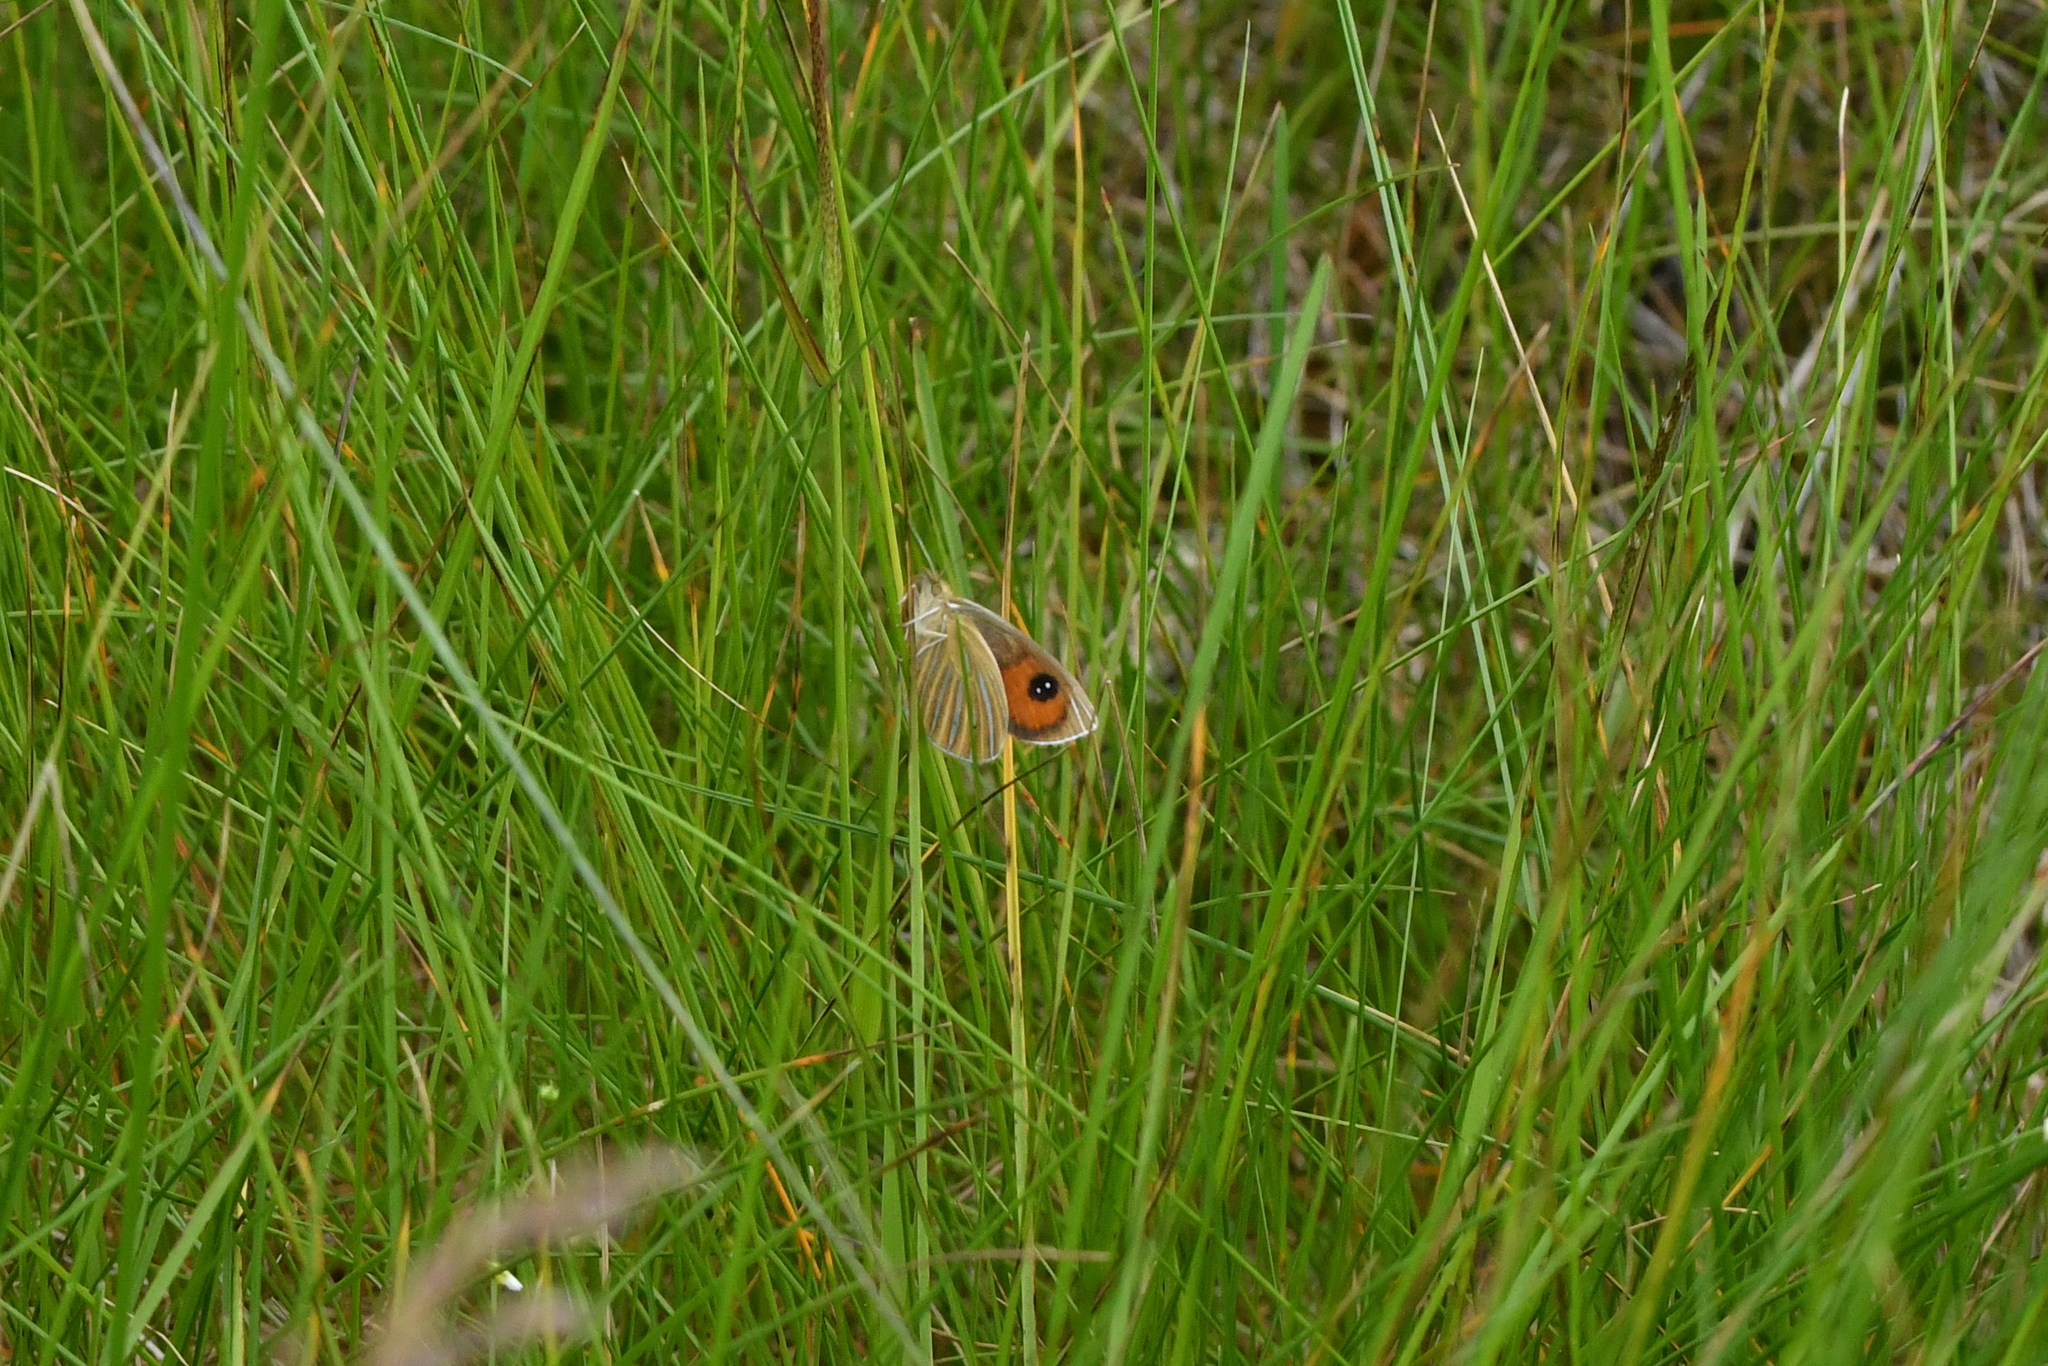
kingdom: Animalia
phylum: Arthropoda
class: Insecta
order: Lepidoptera
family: Nymphalidae
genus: Argyrophenga
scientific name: Argyrophenga antipodum
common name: Common tussock butterfly
